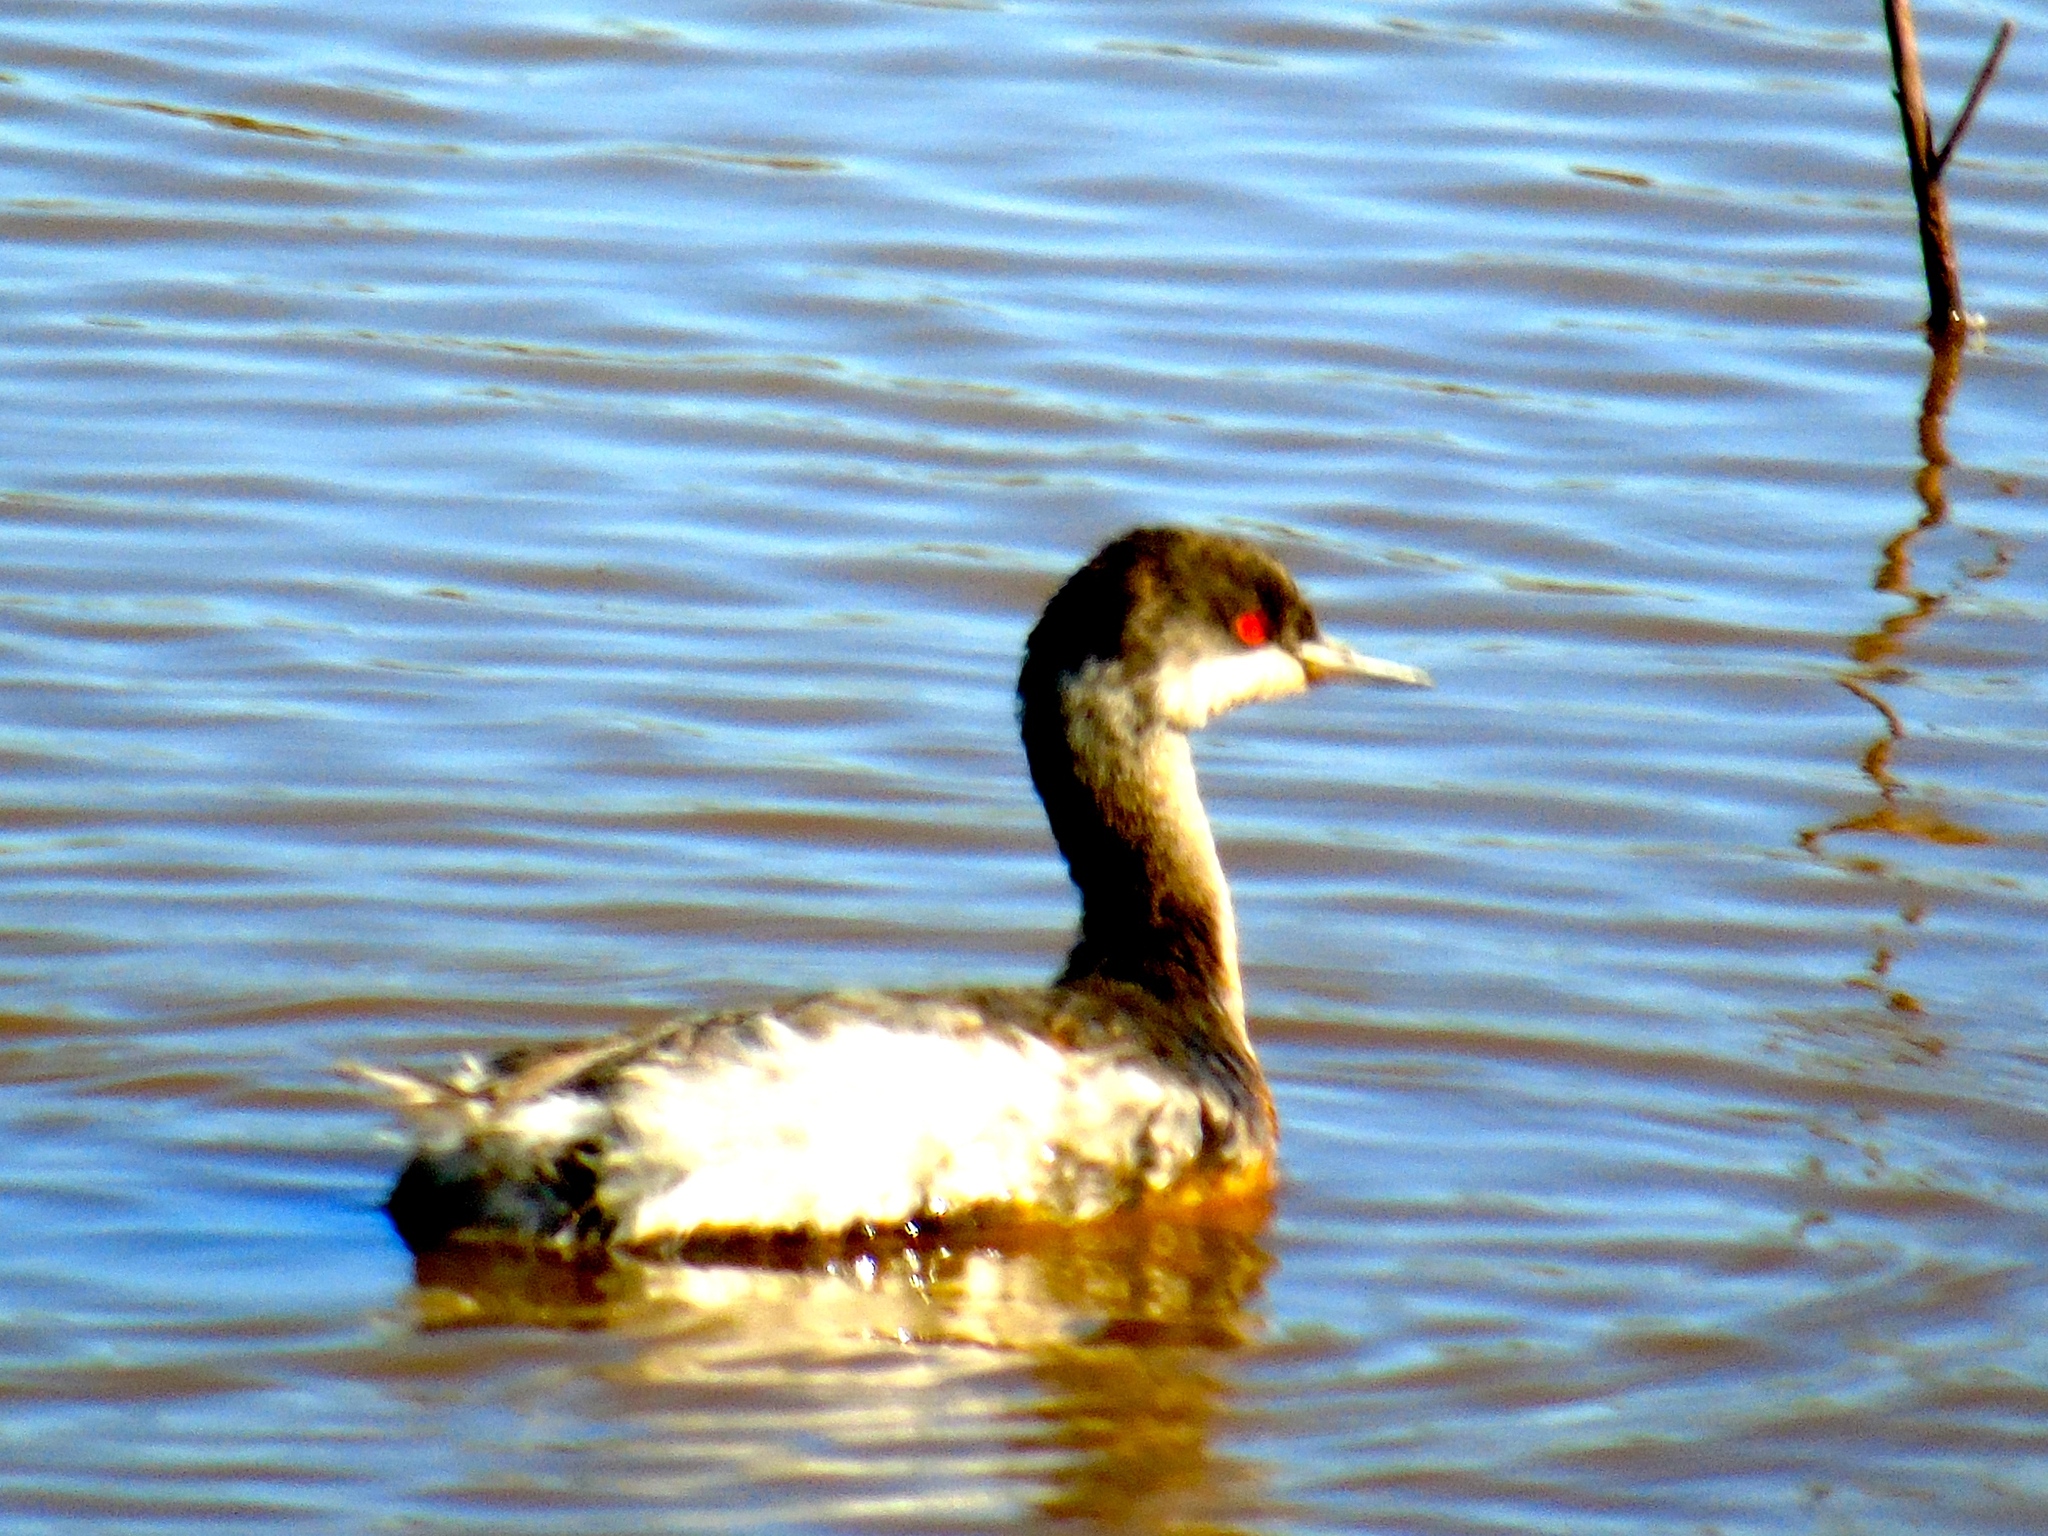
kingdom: Animalia
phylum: Chordata
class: Aves
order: Podicipediformes
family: Podicipedidae
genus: Podiceps
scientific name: Podiceps nigricollis
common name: Black-necked grebe
